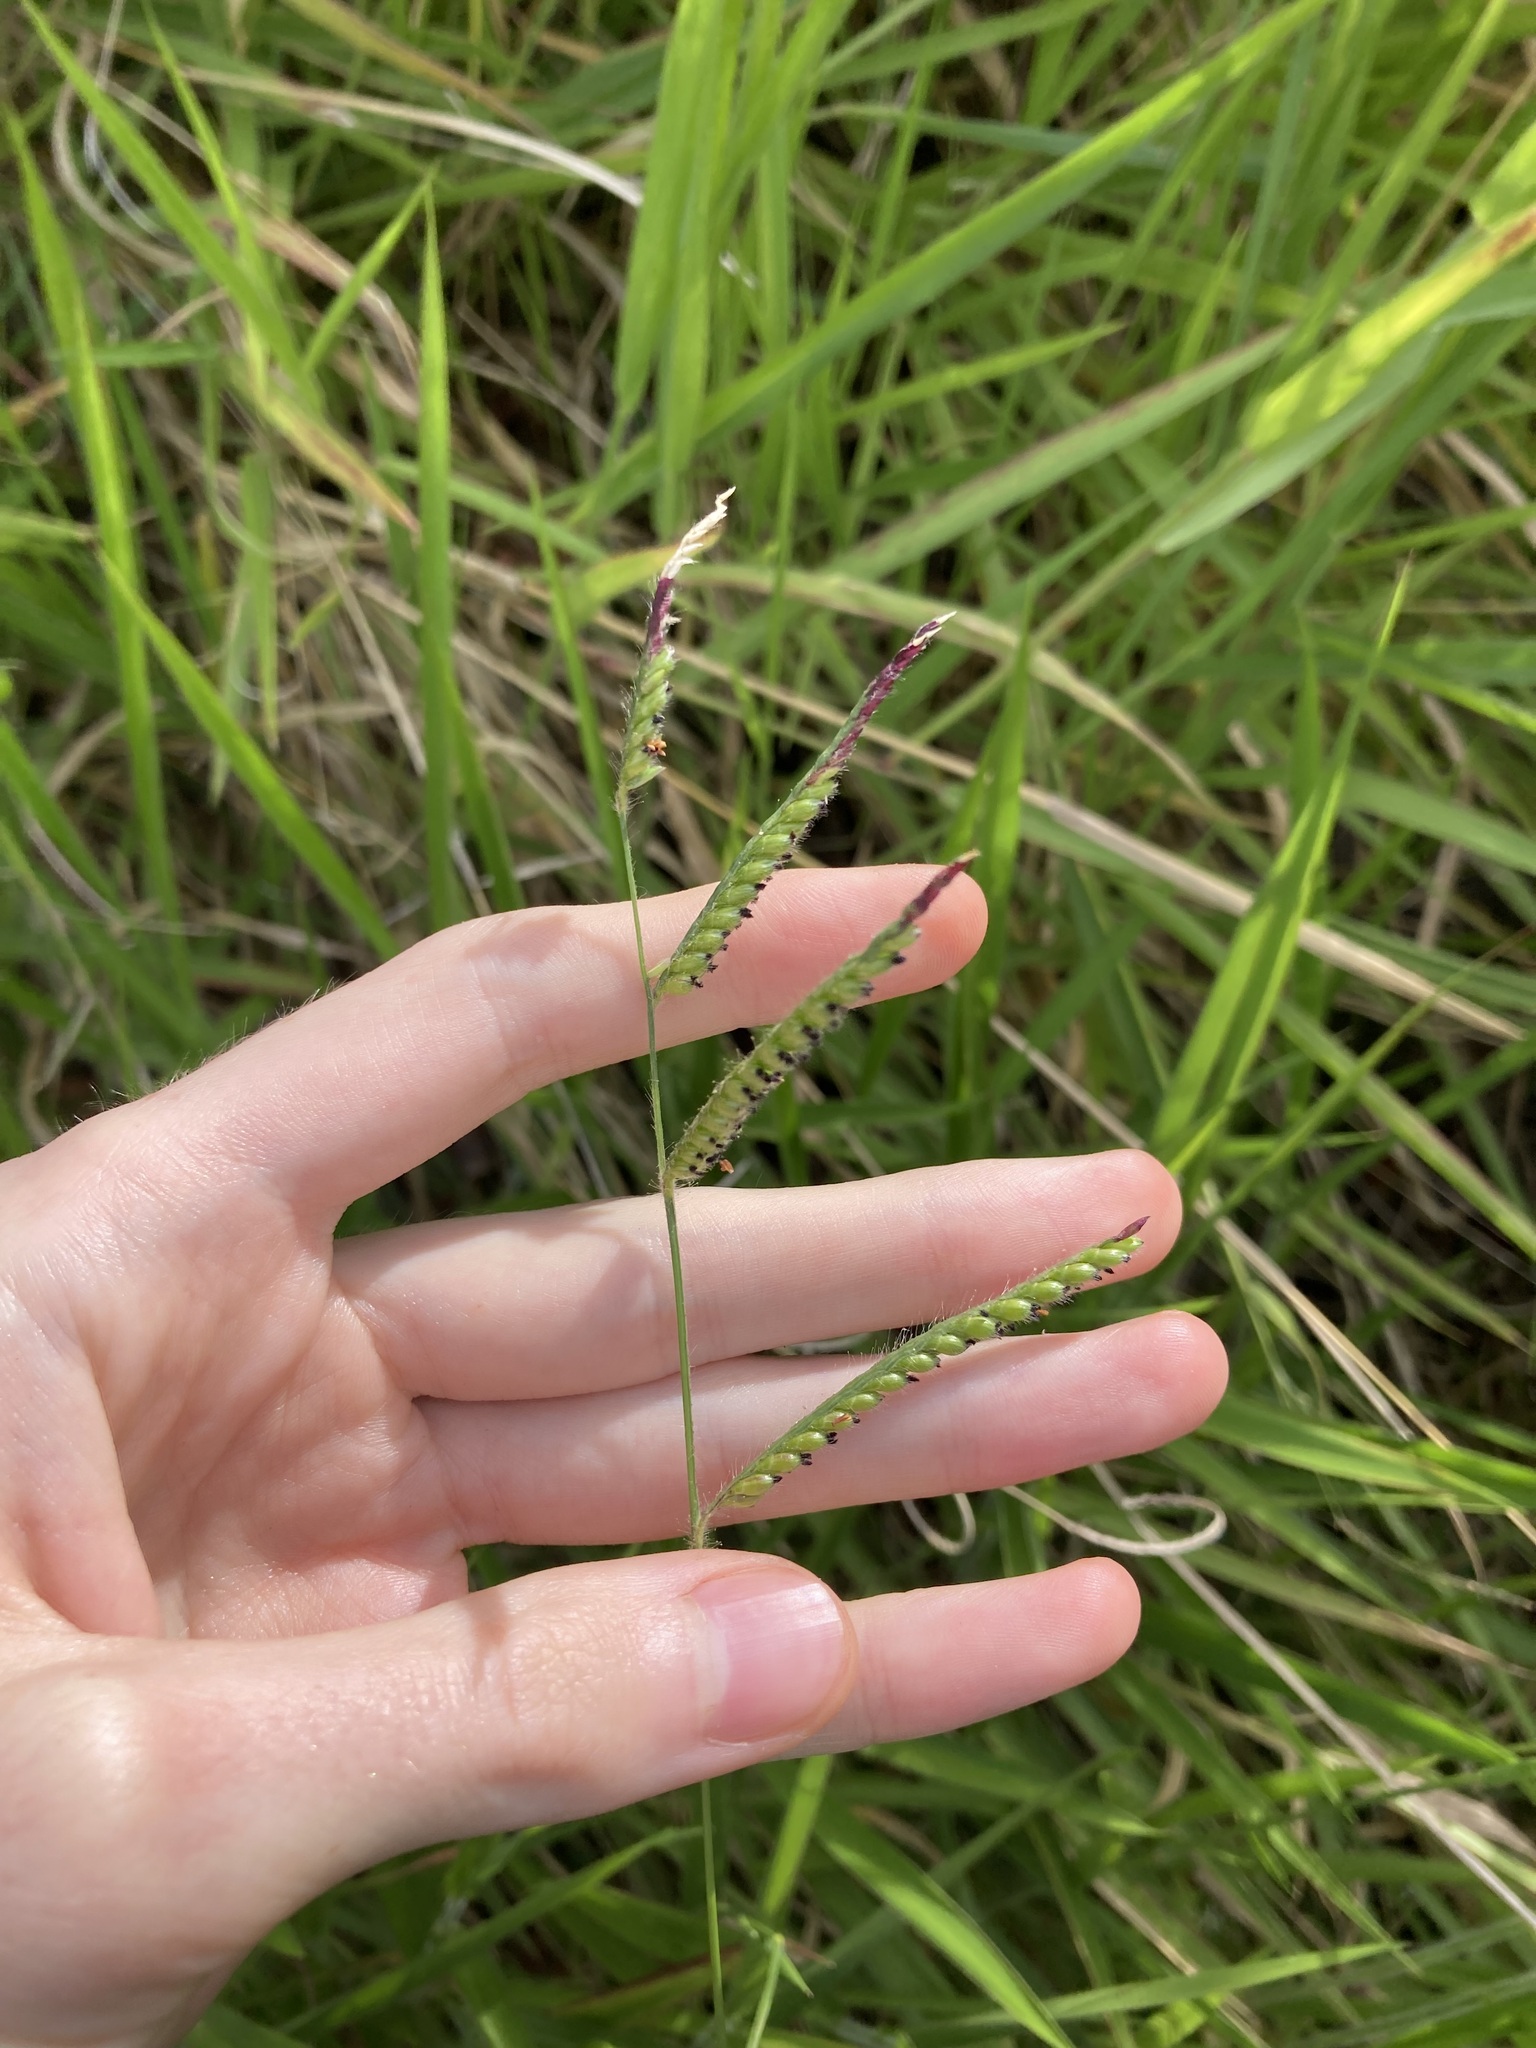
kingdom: Plantae
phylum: Tracheophyta
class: Liliopsida
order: Poales
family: Poaceae
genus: Urochloa
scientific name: Urochloa eminii
